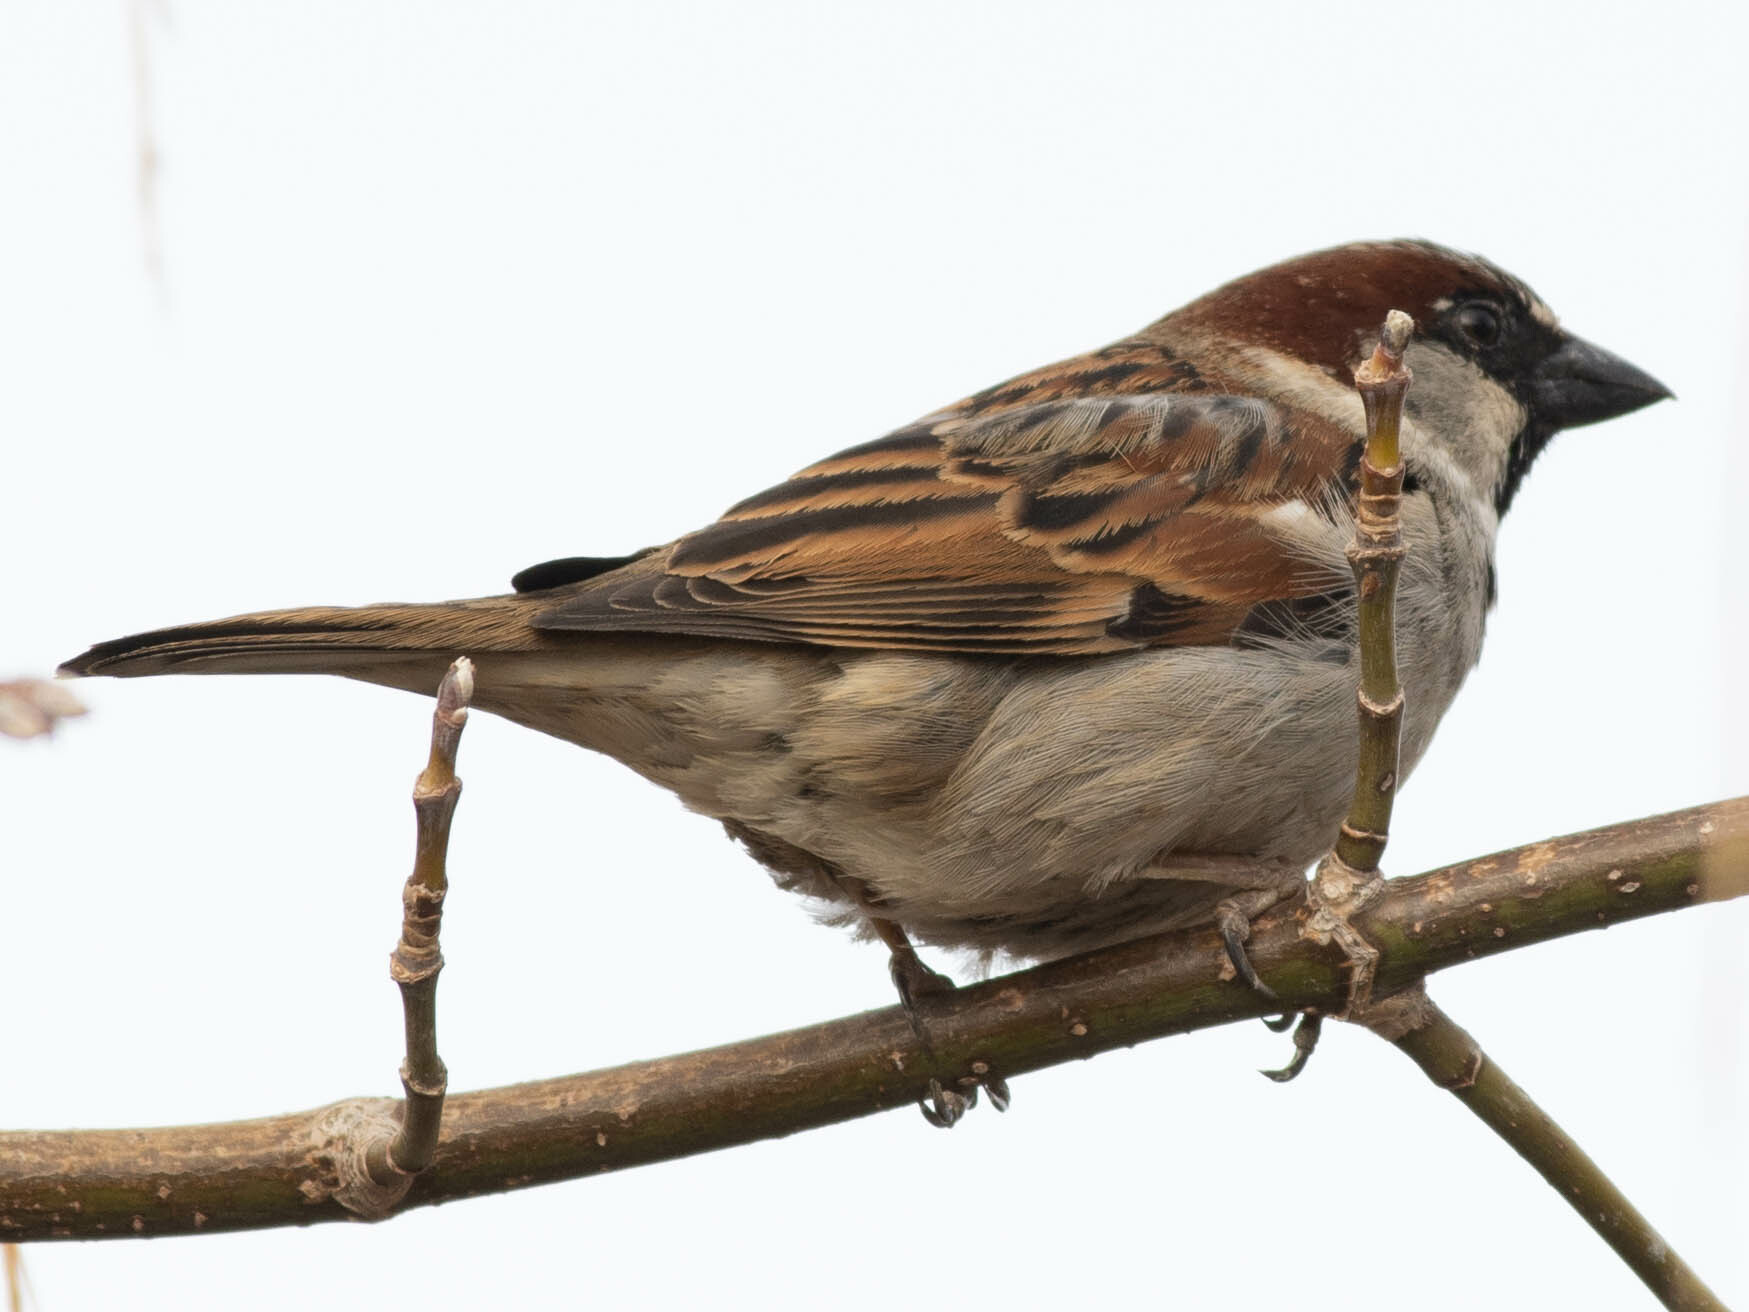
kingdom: Animalia
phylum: Chordata
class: Aves
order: Passeriformes
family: Passeridae
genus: Passer
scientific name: Passer domesticus
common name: House sparrow
